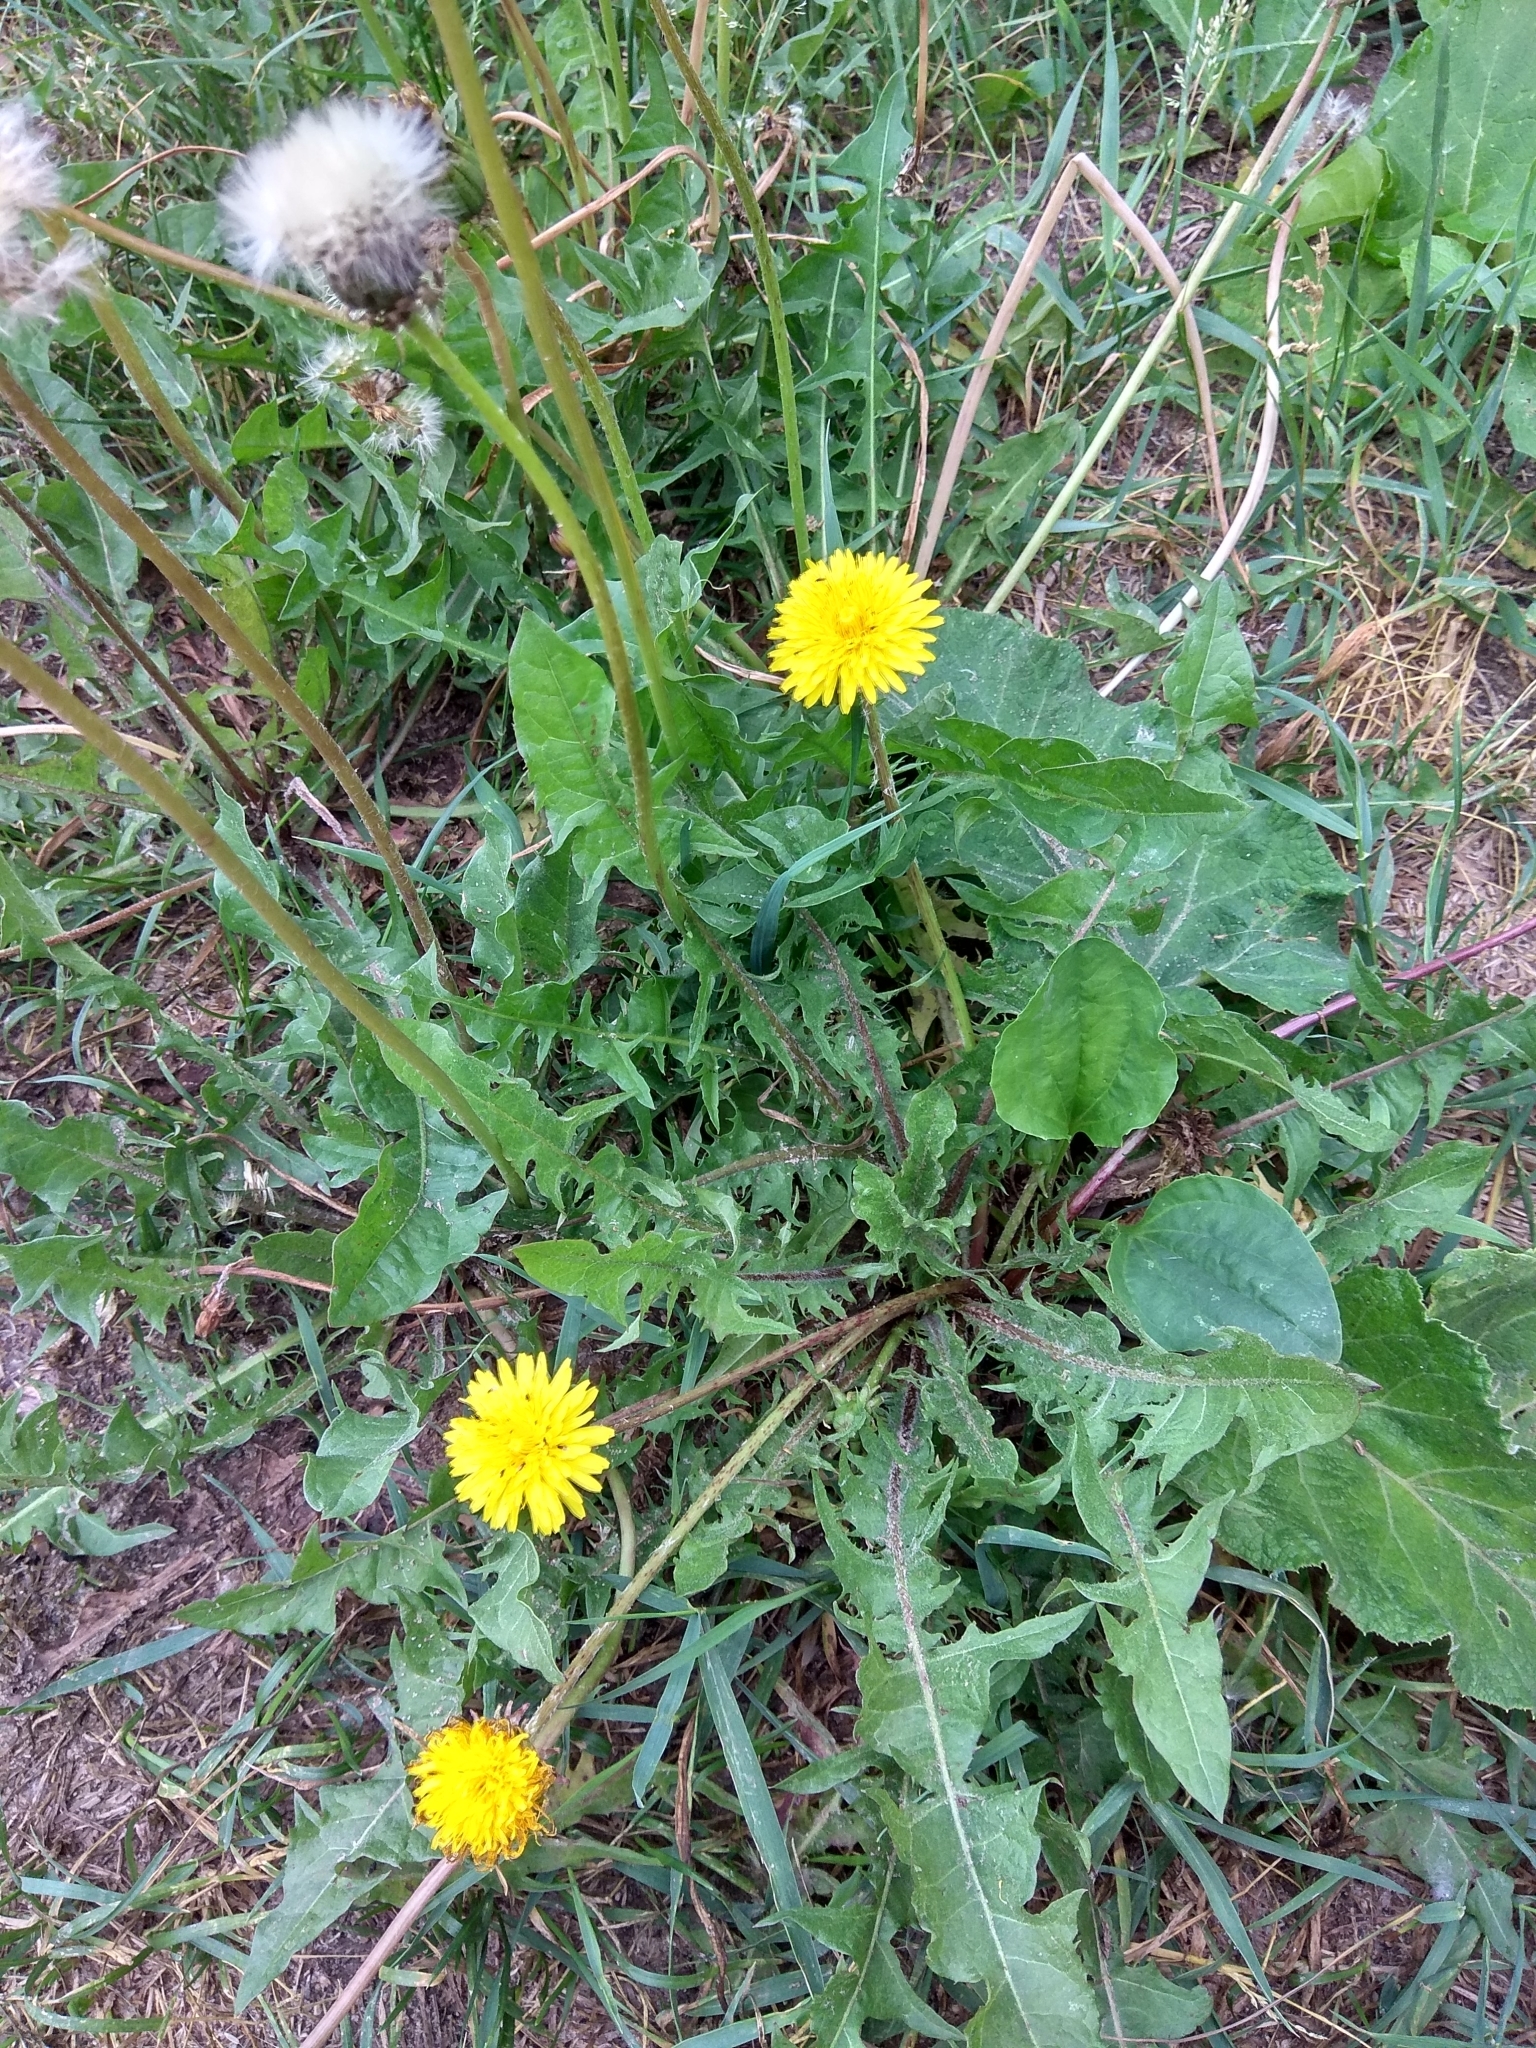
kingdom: Plantae
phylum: Tracheophyta
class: Magnoliopsida
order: Asterales
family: Asteraceae
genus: Taraxacum
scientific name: Taraxacum officinale
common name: Common dandelion
